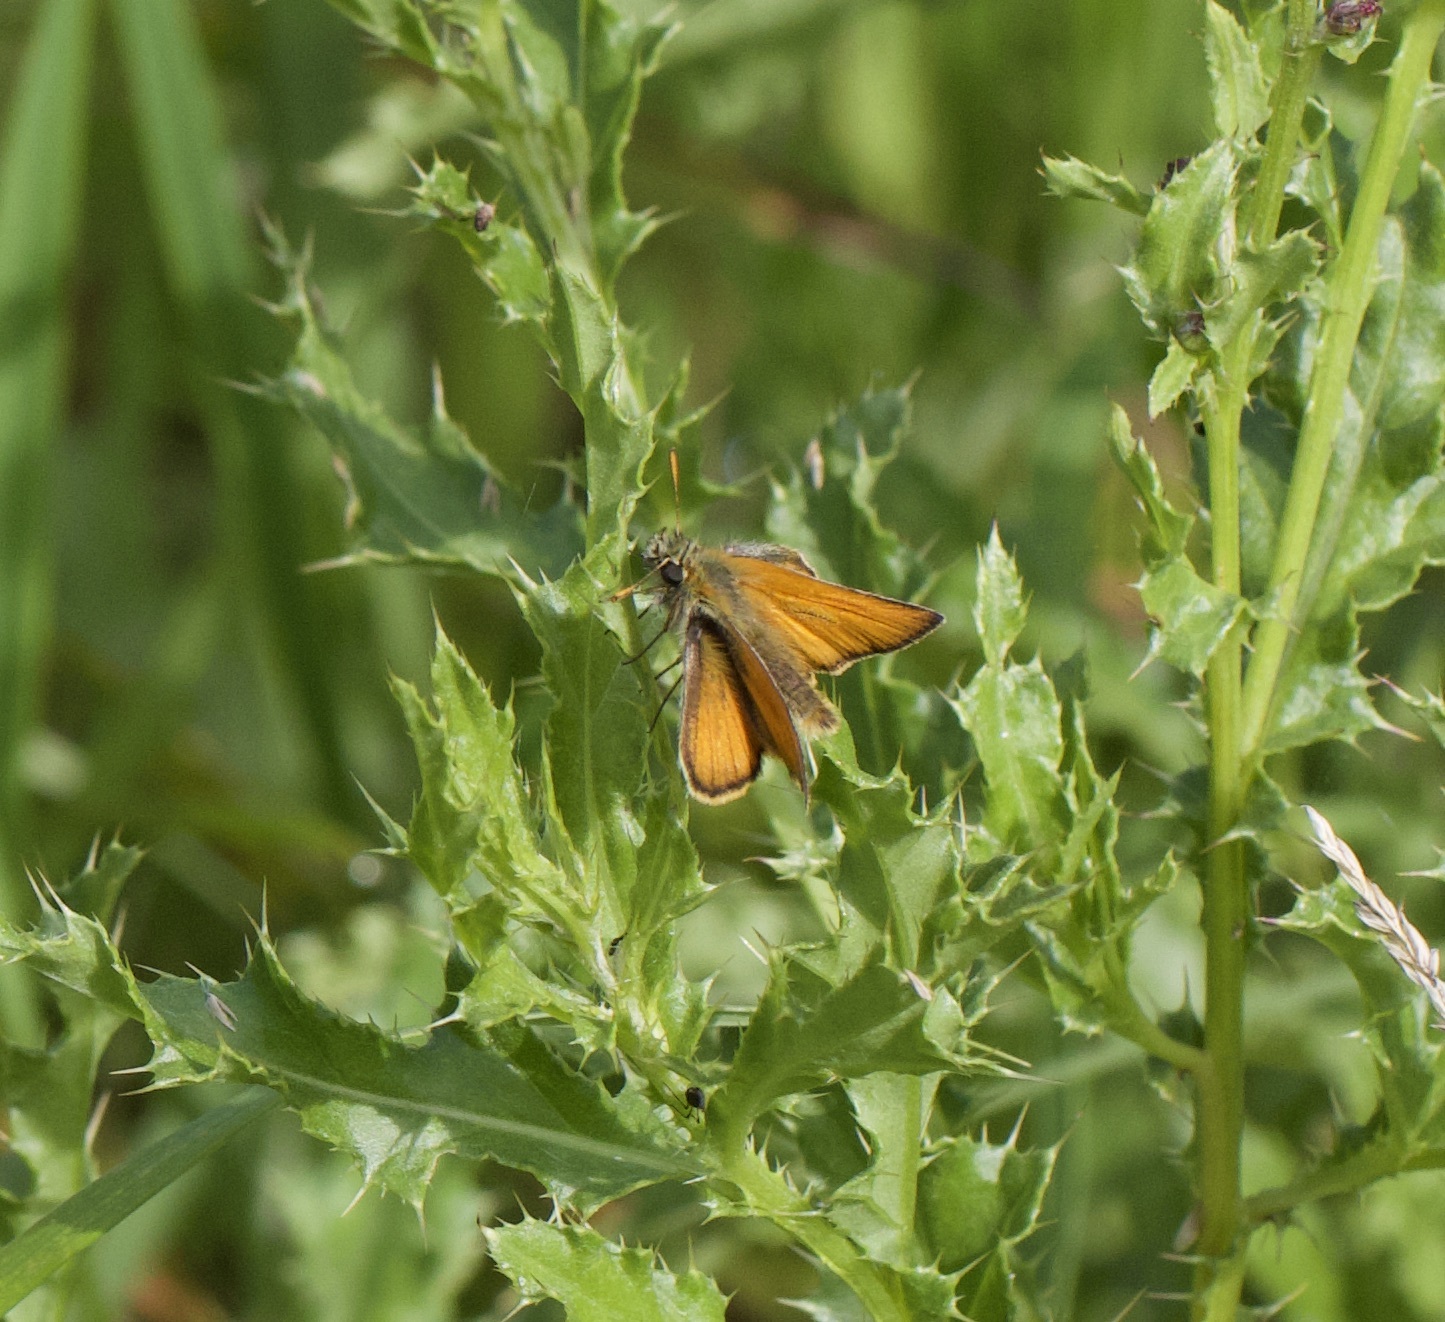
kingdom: Animalia
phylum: Arthropoda
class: Insecta
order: Lepidoptera
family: Hesperiidae
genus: Thymelicus
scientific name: Thymelicus sylvestris
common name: Small skipper
